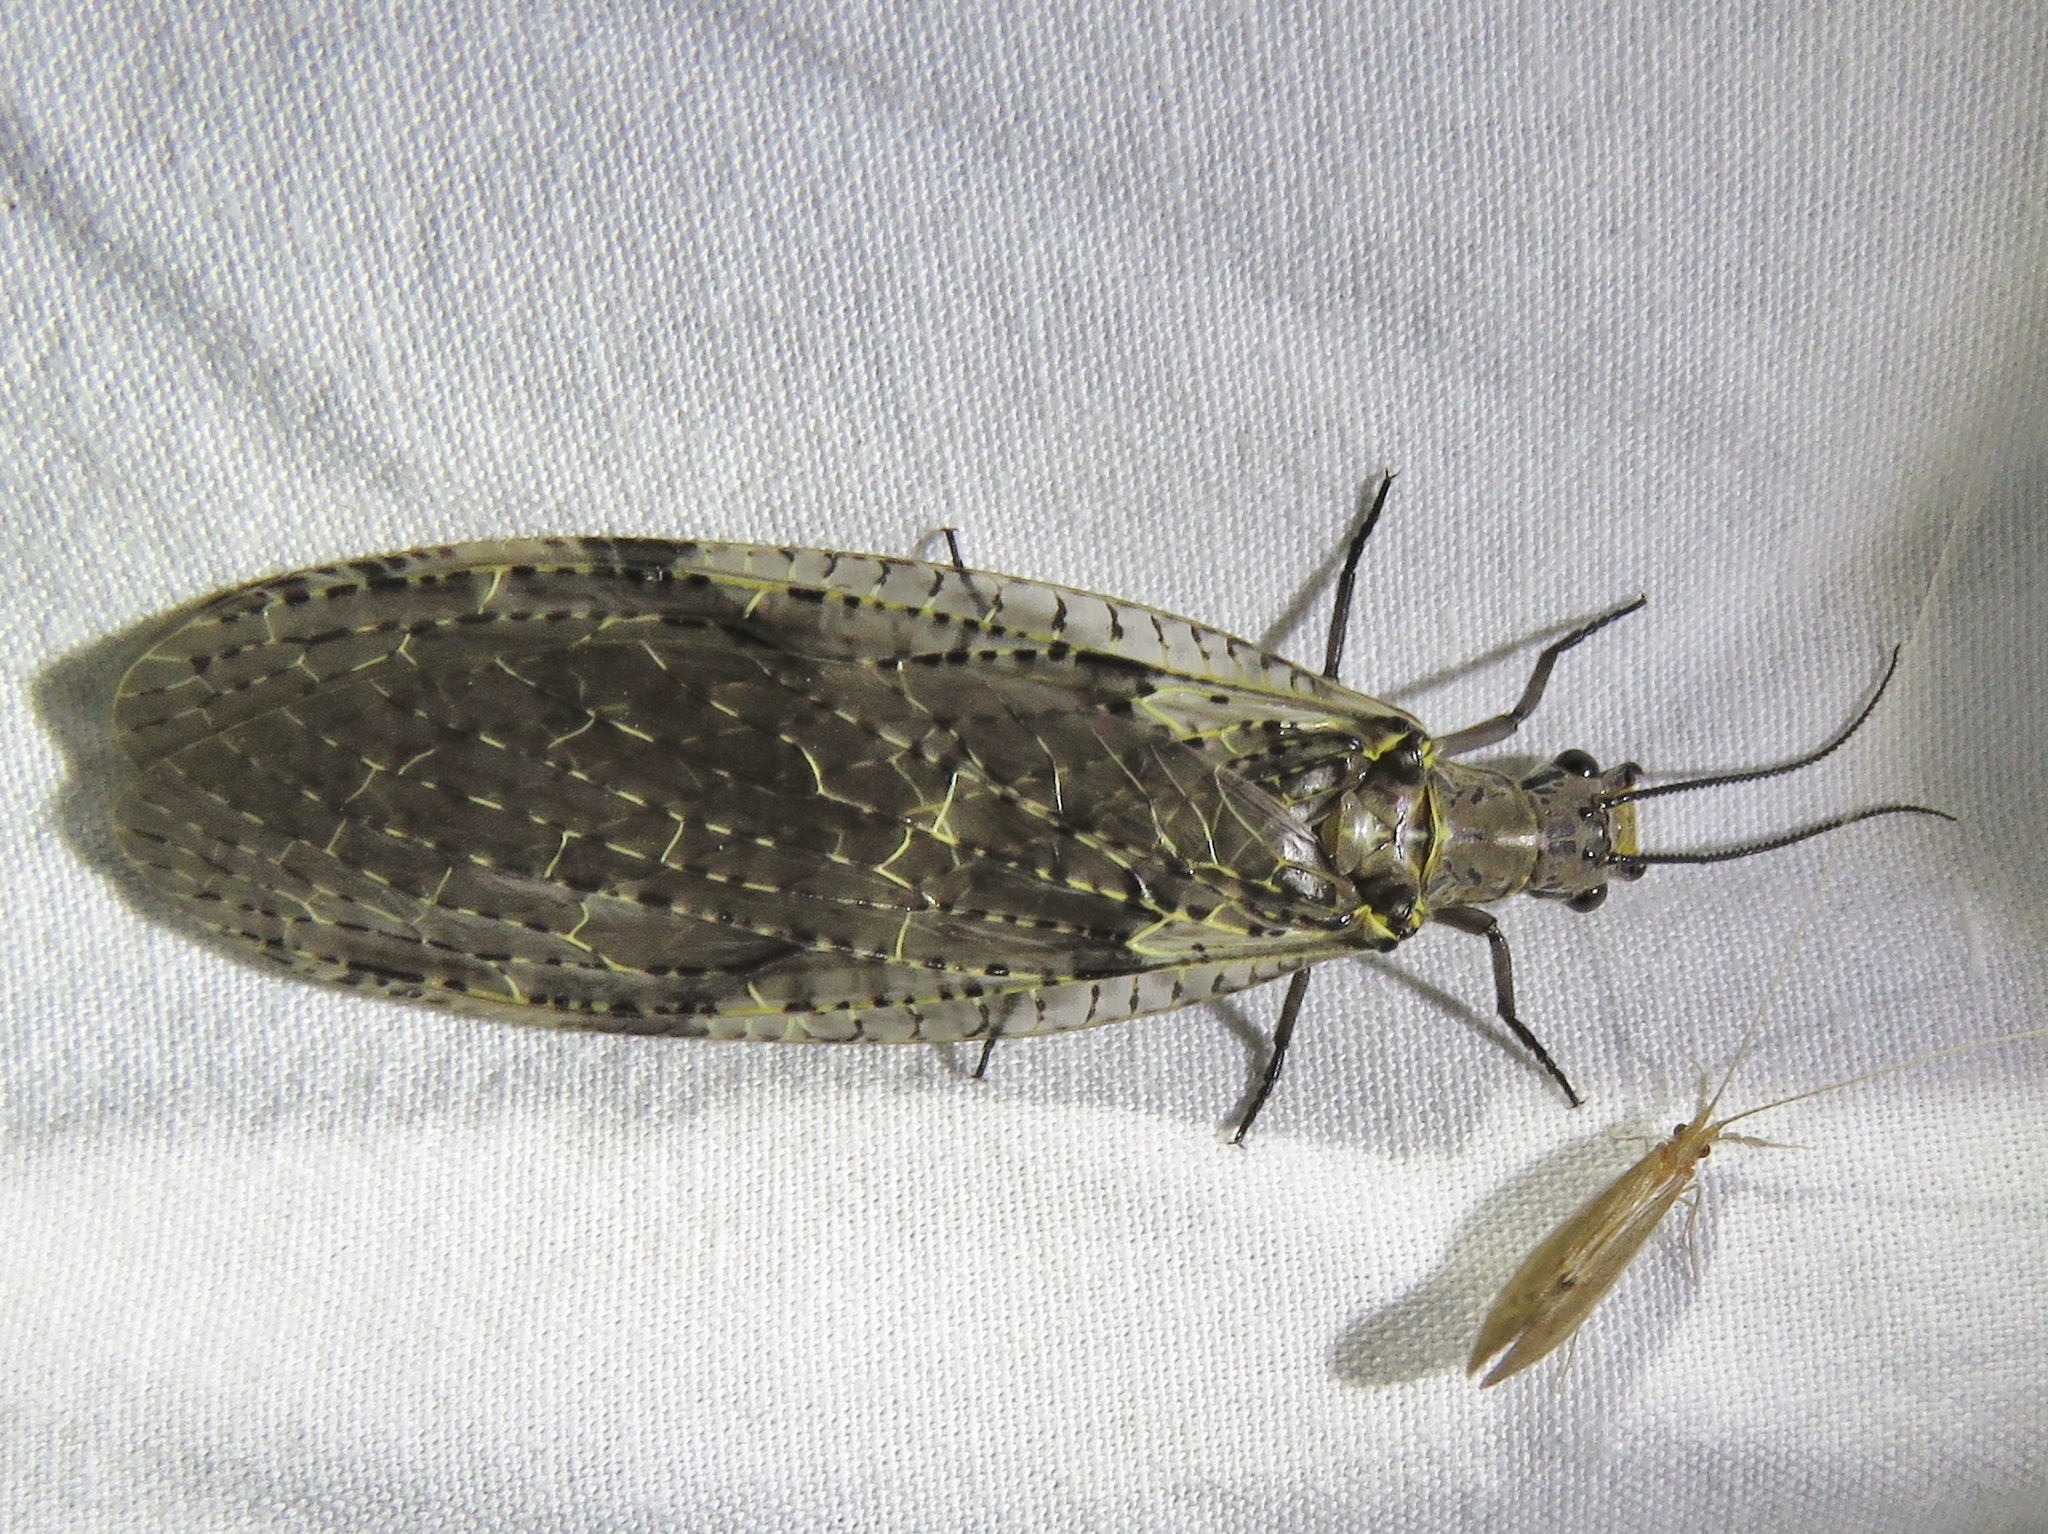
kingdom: Animalia
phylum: Arthropoda
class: Insecta
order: Megaloptera
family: Corydalidae
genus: Chauliodes
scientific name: Chauliodes rastricornis
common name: Spring fishfly
